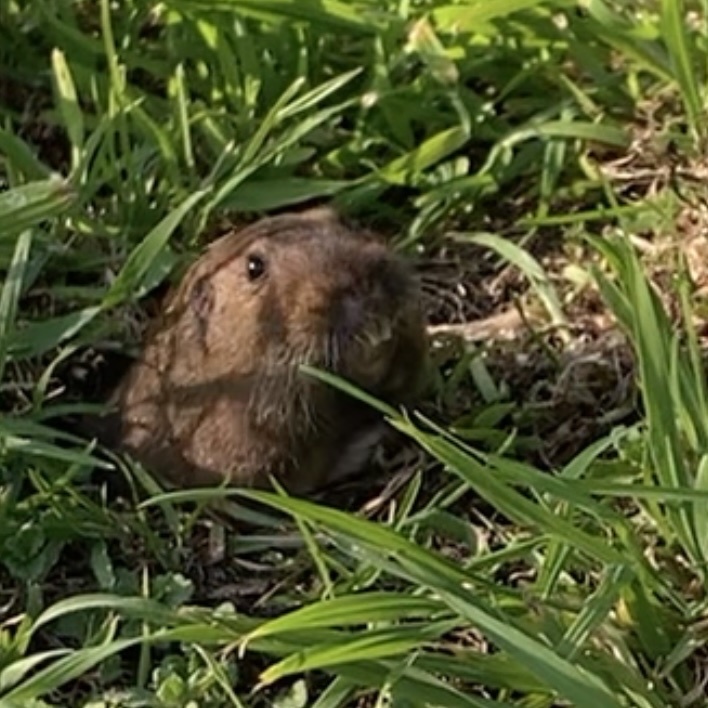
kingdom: Animalia
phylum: Chordata
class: Mammalia
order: Rodentia
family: Geomyidae
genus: Thomomys
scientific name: Thomomys bottae
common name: Botta's pocket gopher
